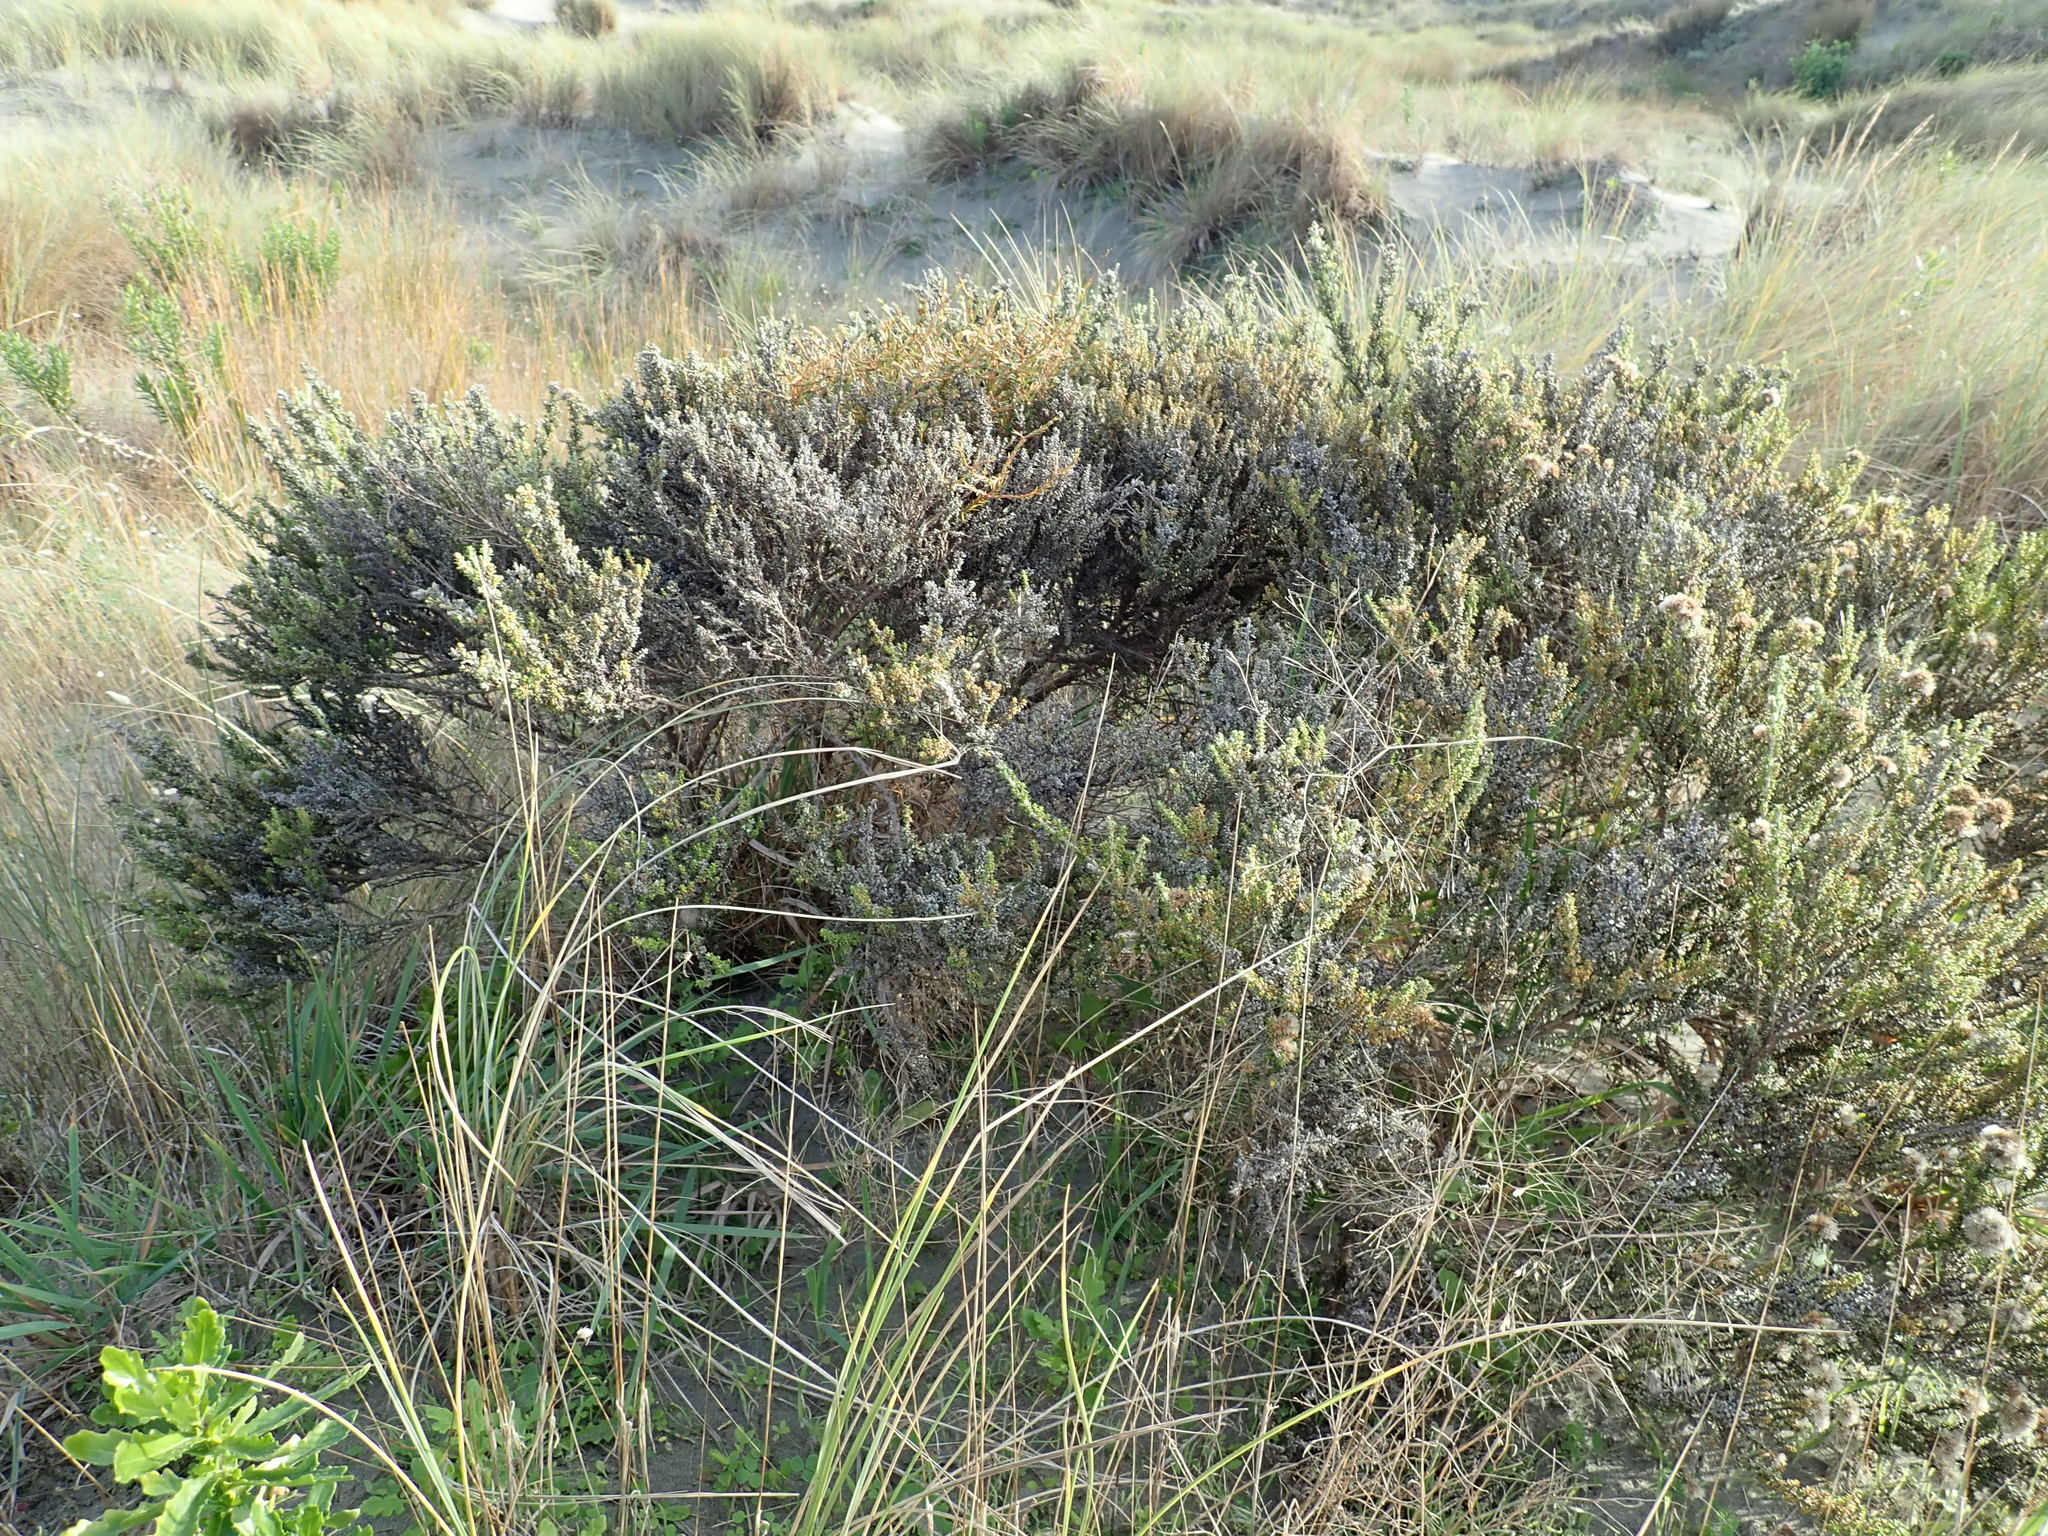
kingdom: Plantae
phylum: Tracheophyta
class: Magnoliopsida
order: Gentianales
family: Rubiaceae
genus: Coprosma
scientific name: Coprosma acerosa
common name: Sand coprosma
